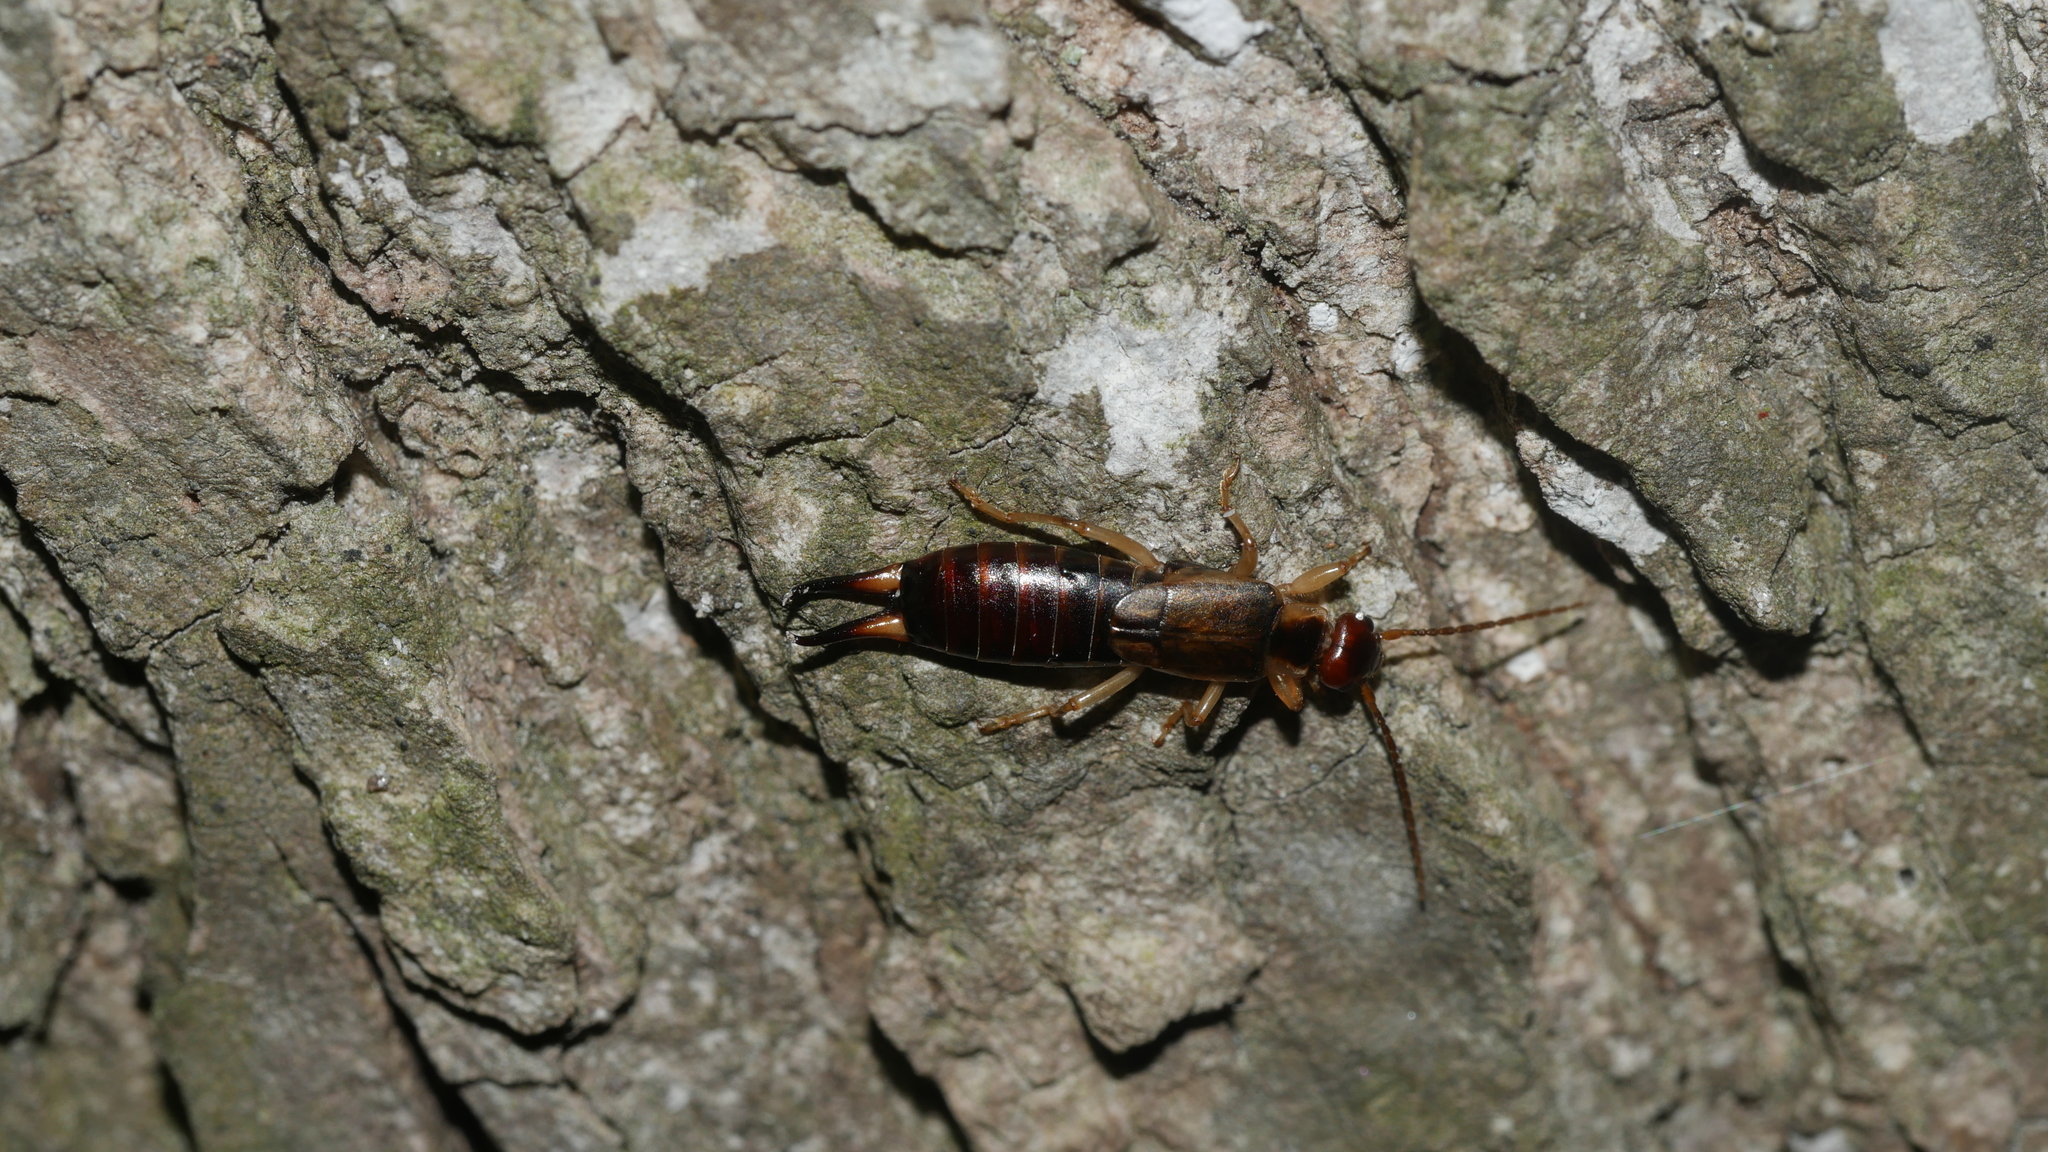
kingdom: Animalia
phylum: Arthropoda
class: Insecta
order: Dermaptera
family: Forficulidae
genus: Forficula
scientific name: Forficula
